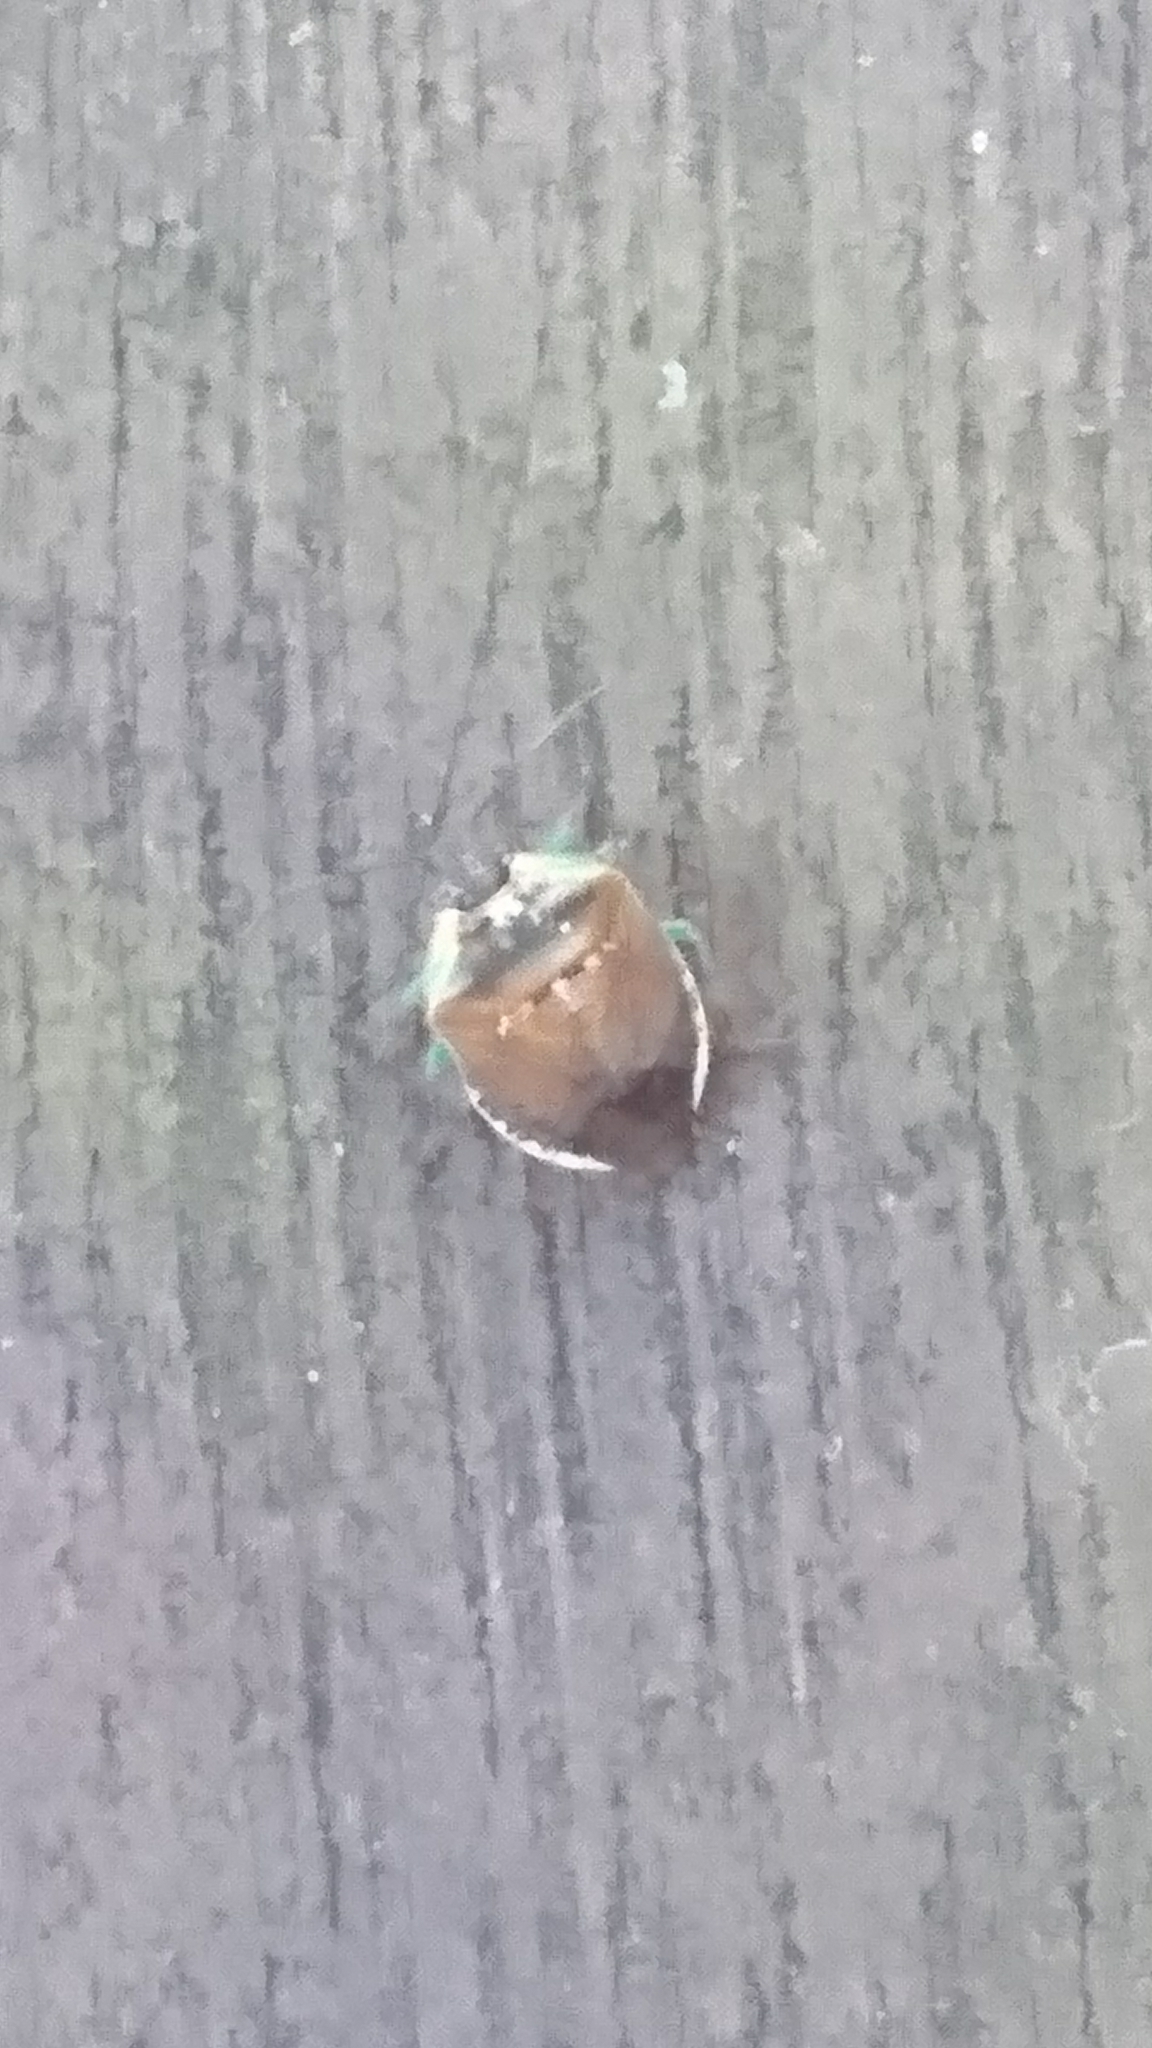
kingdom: Animalia
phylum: Arthropoda
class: Insecta
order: Hemiptera
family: Pentatomidae
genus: Monteithiella
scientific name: Monteithiella
